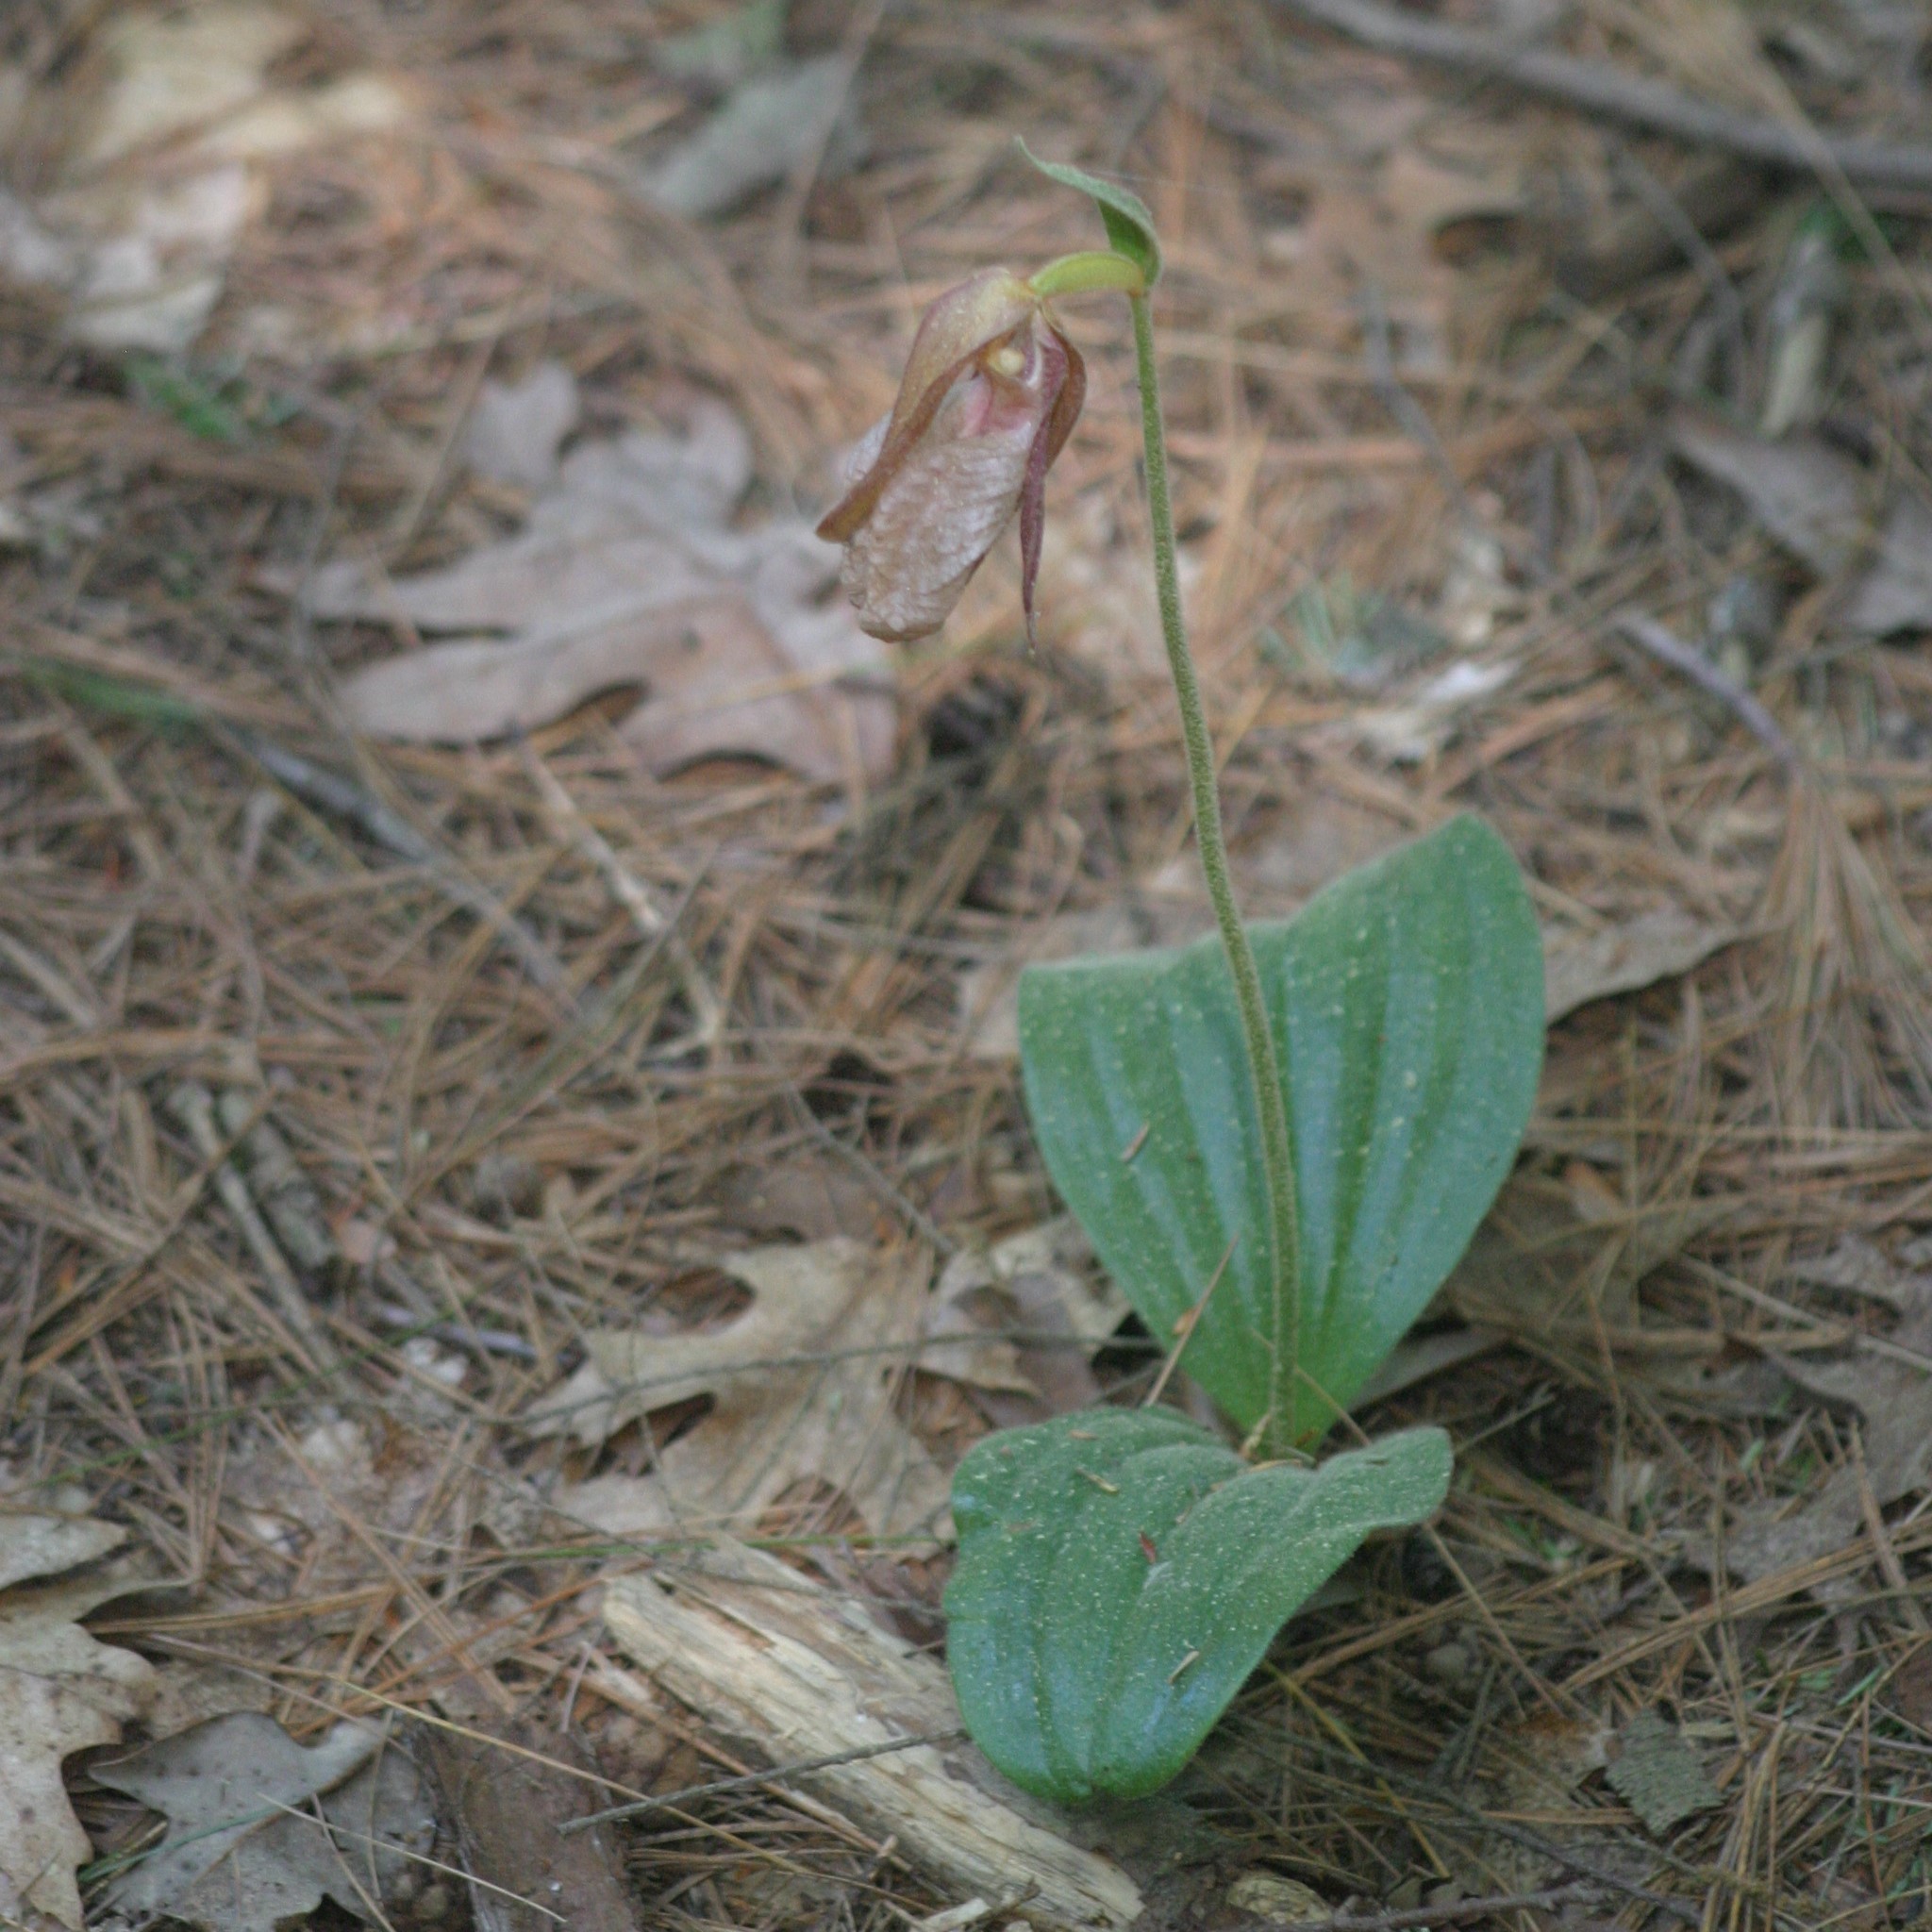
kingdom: Plantae
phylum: Tracheophyta
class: Liliopsida
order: Asparagales
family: Orchidaceae
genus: Cypripedium
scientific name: Cypripedium acaule
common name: Pink lady's-slipper
